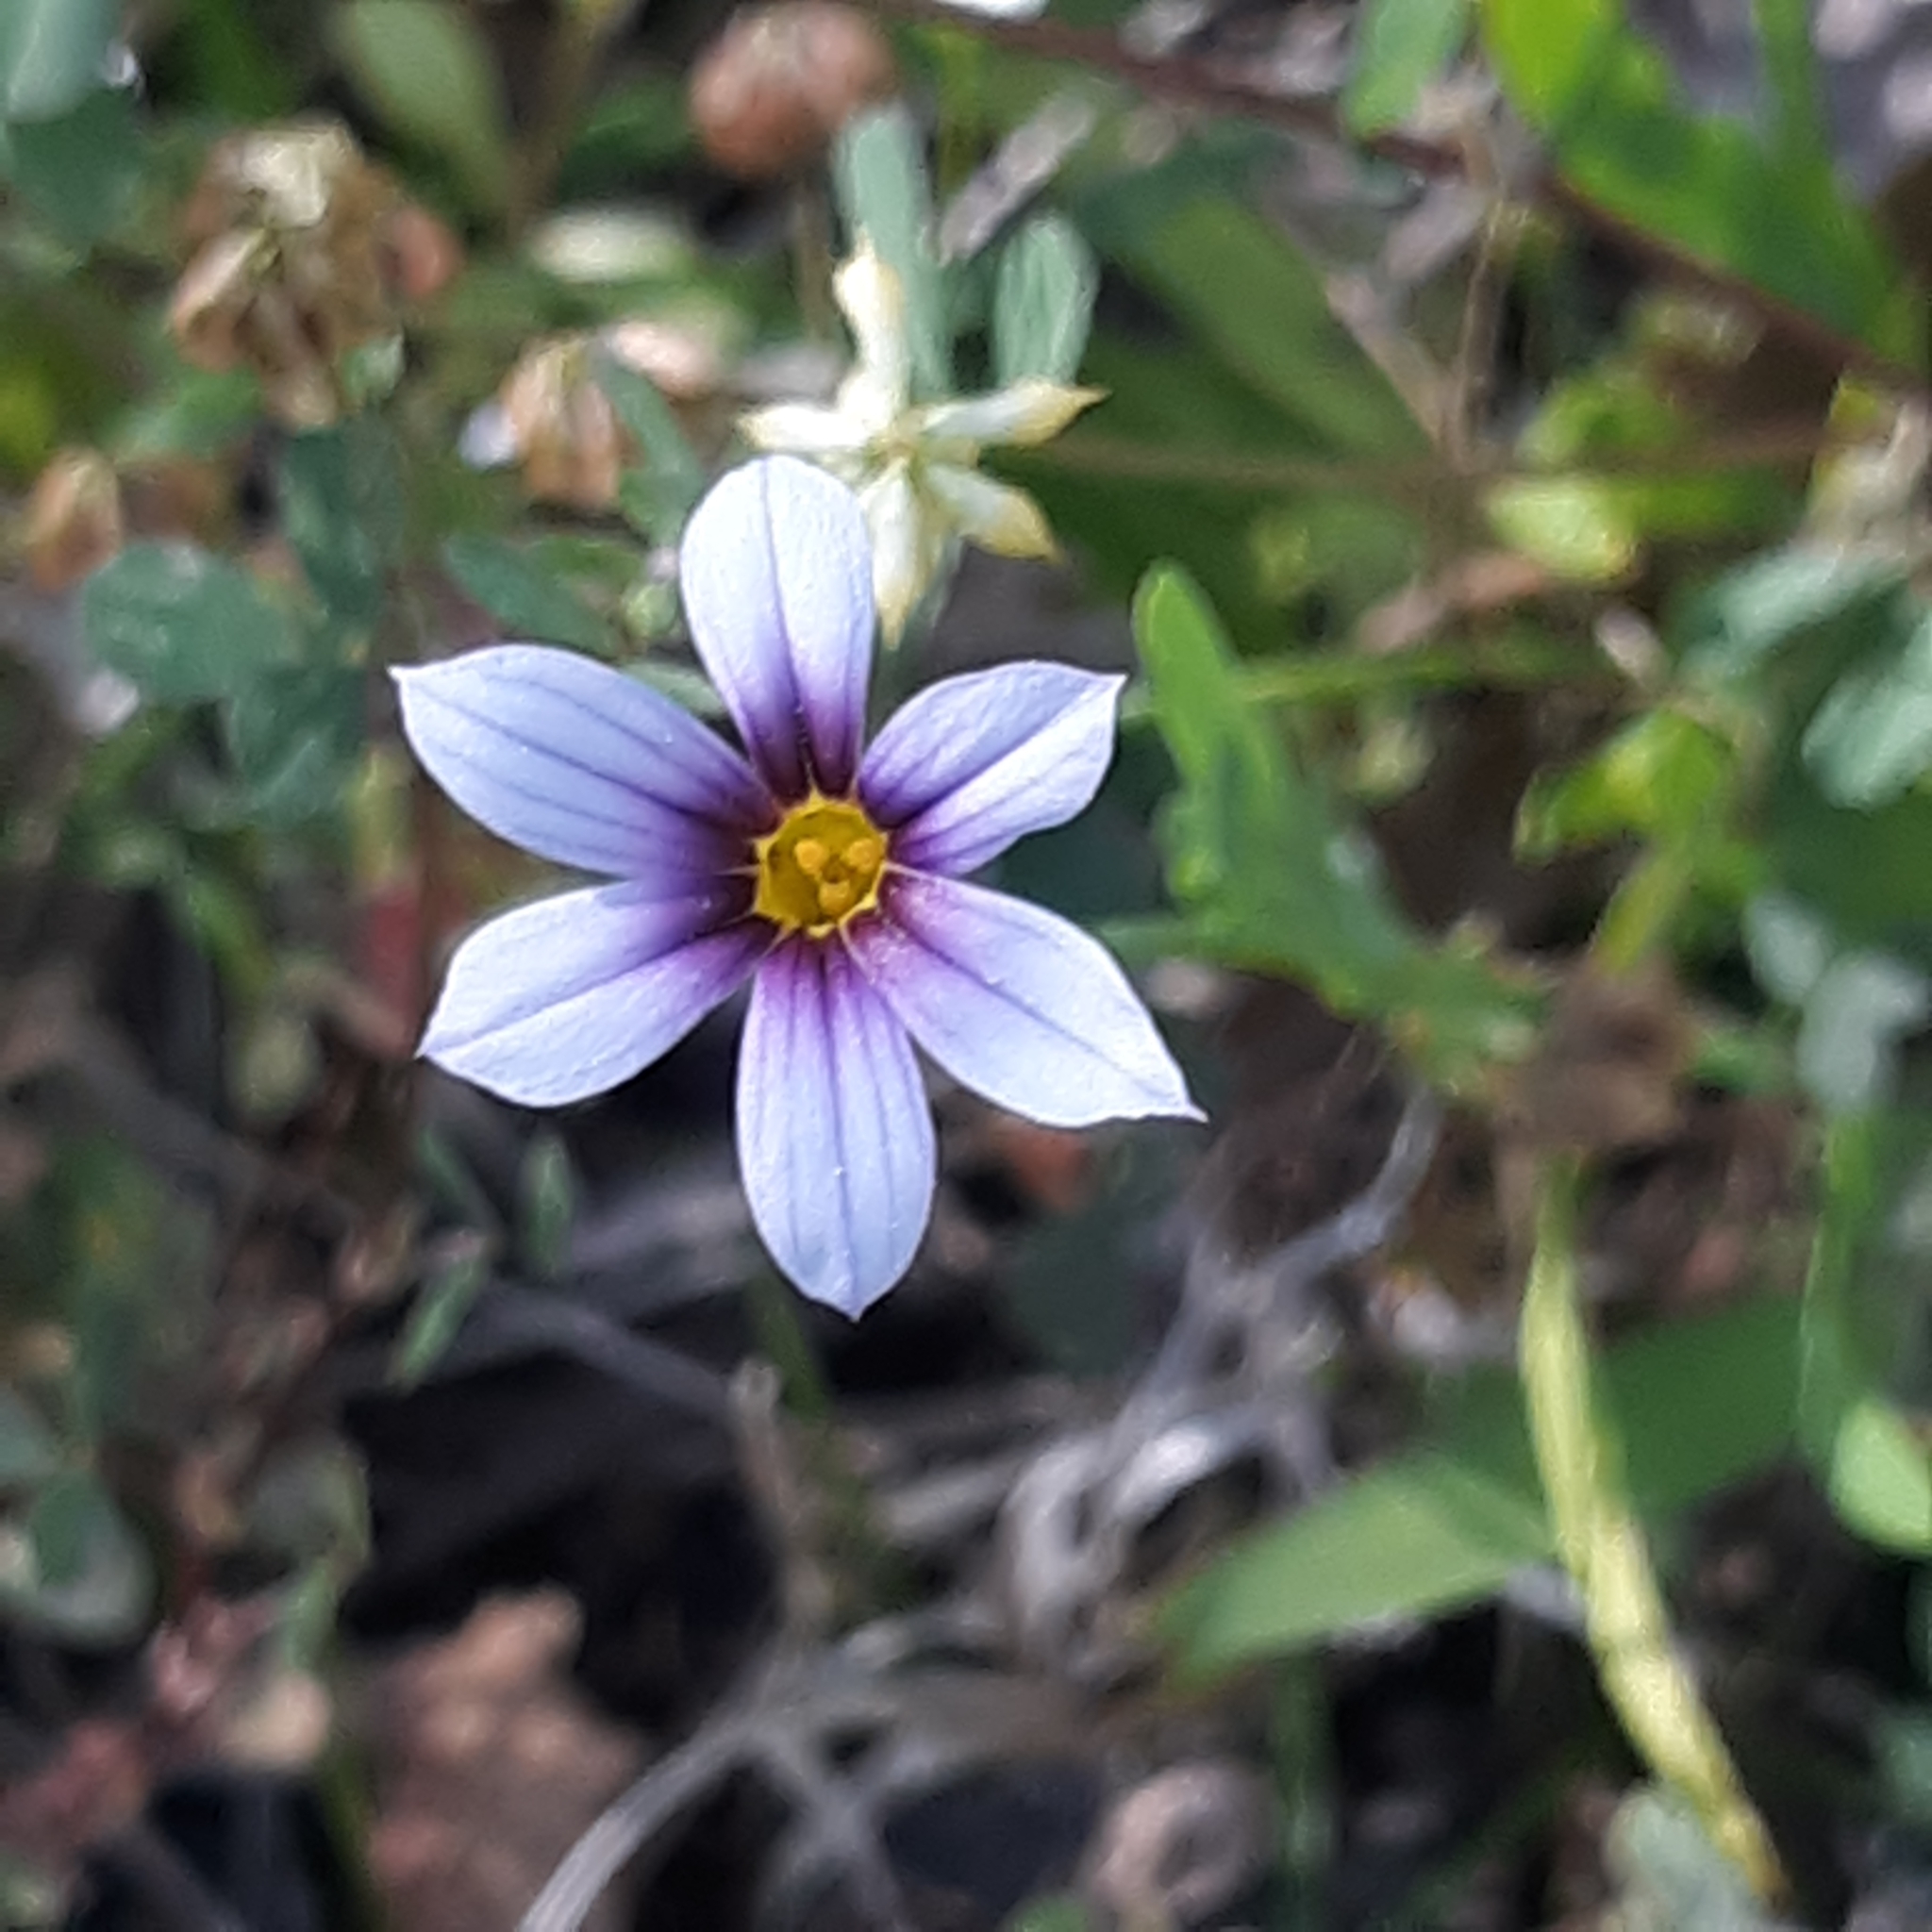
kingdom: Plantae
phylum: Tracheophyta
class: Liliopsida
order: Asparagales
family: Iridaceae
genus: Sisyrinchium
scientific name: Sisyrinchium micranthum
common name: Bermuda pigroot
